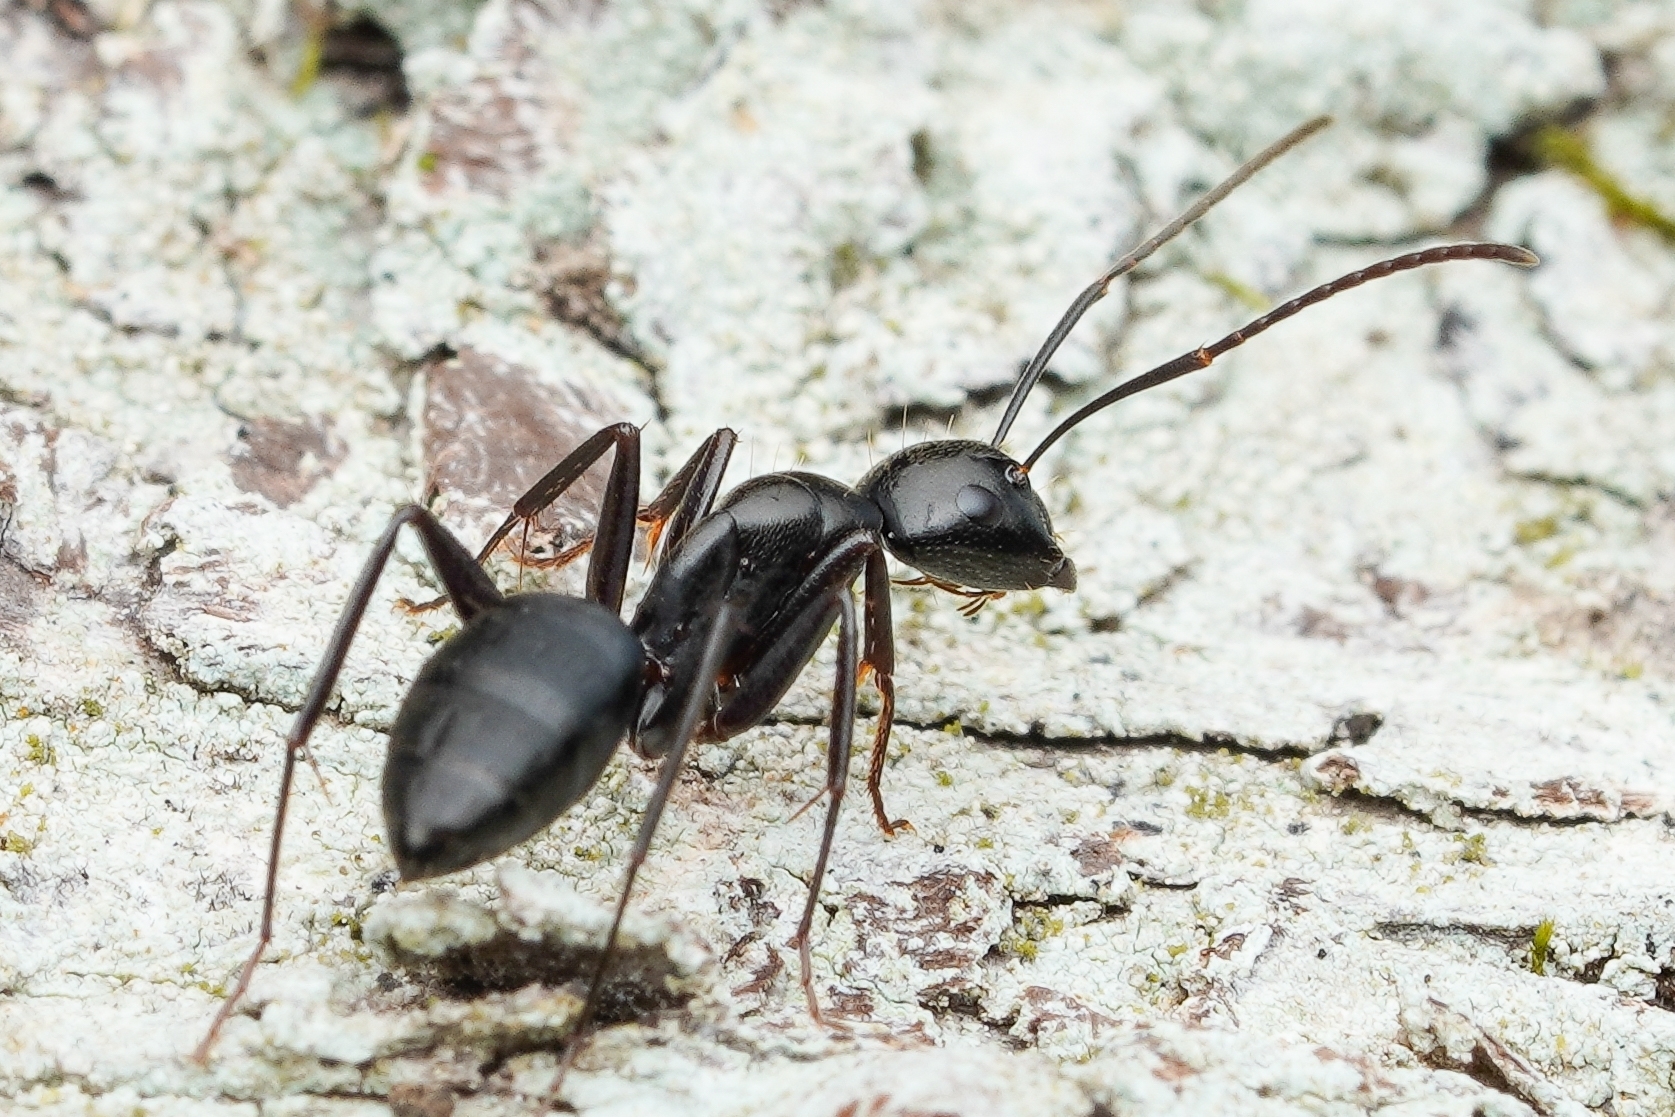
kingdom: Animalia
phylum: Arthropoda
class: Insecta
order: Hymenoptera
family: Formicidae
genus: Camponotus
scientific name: Camponotus concavus
